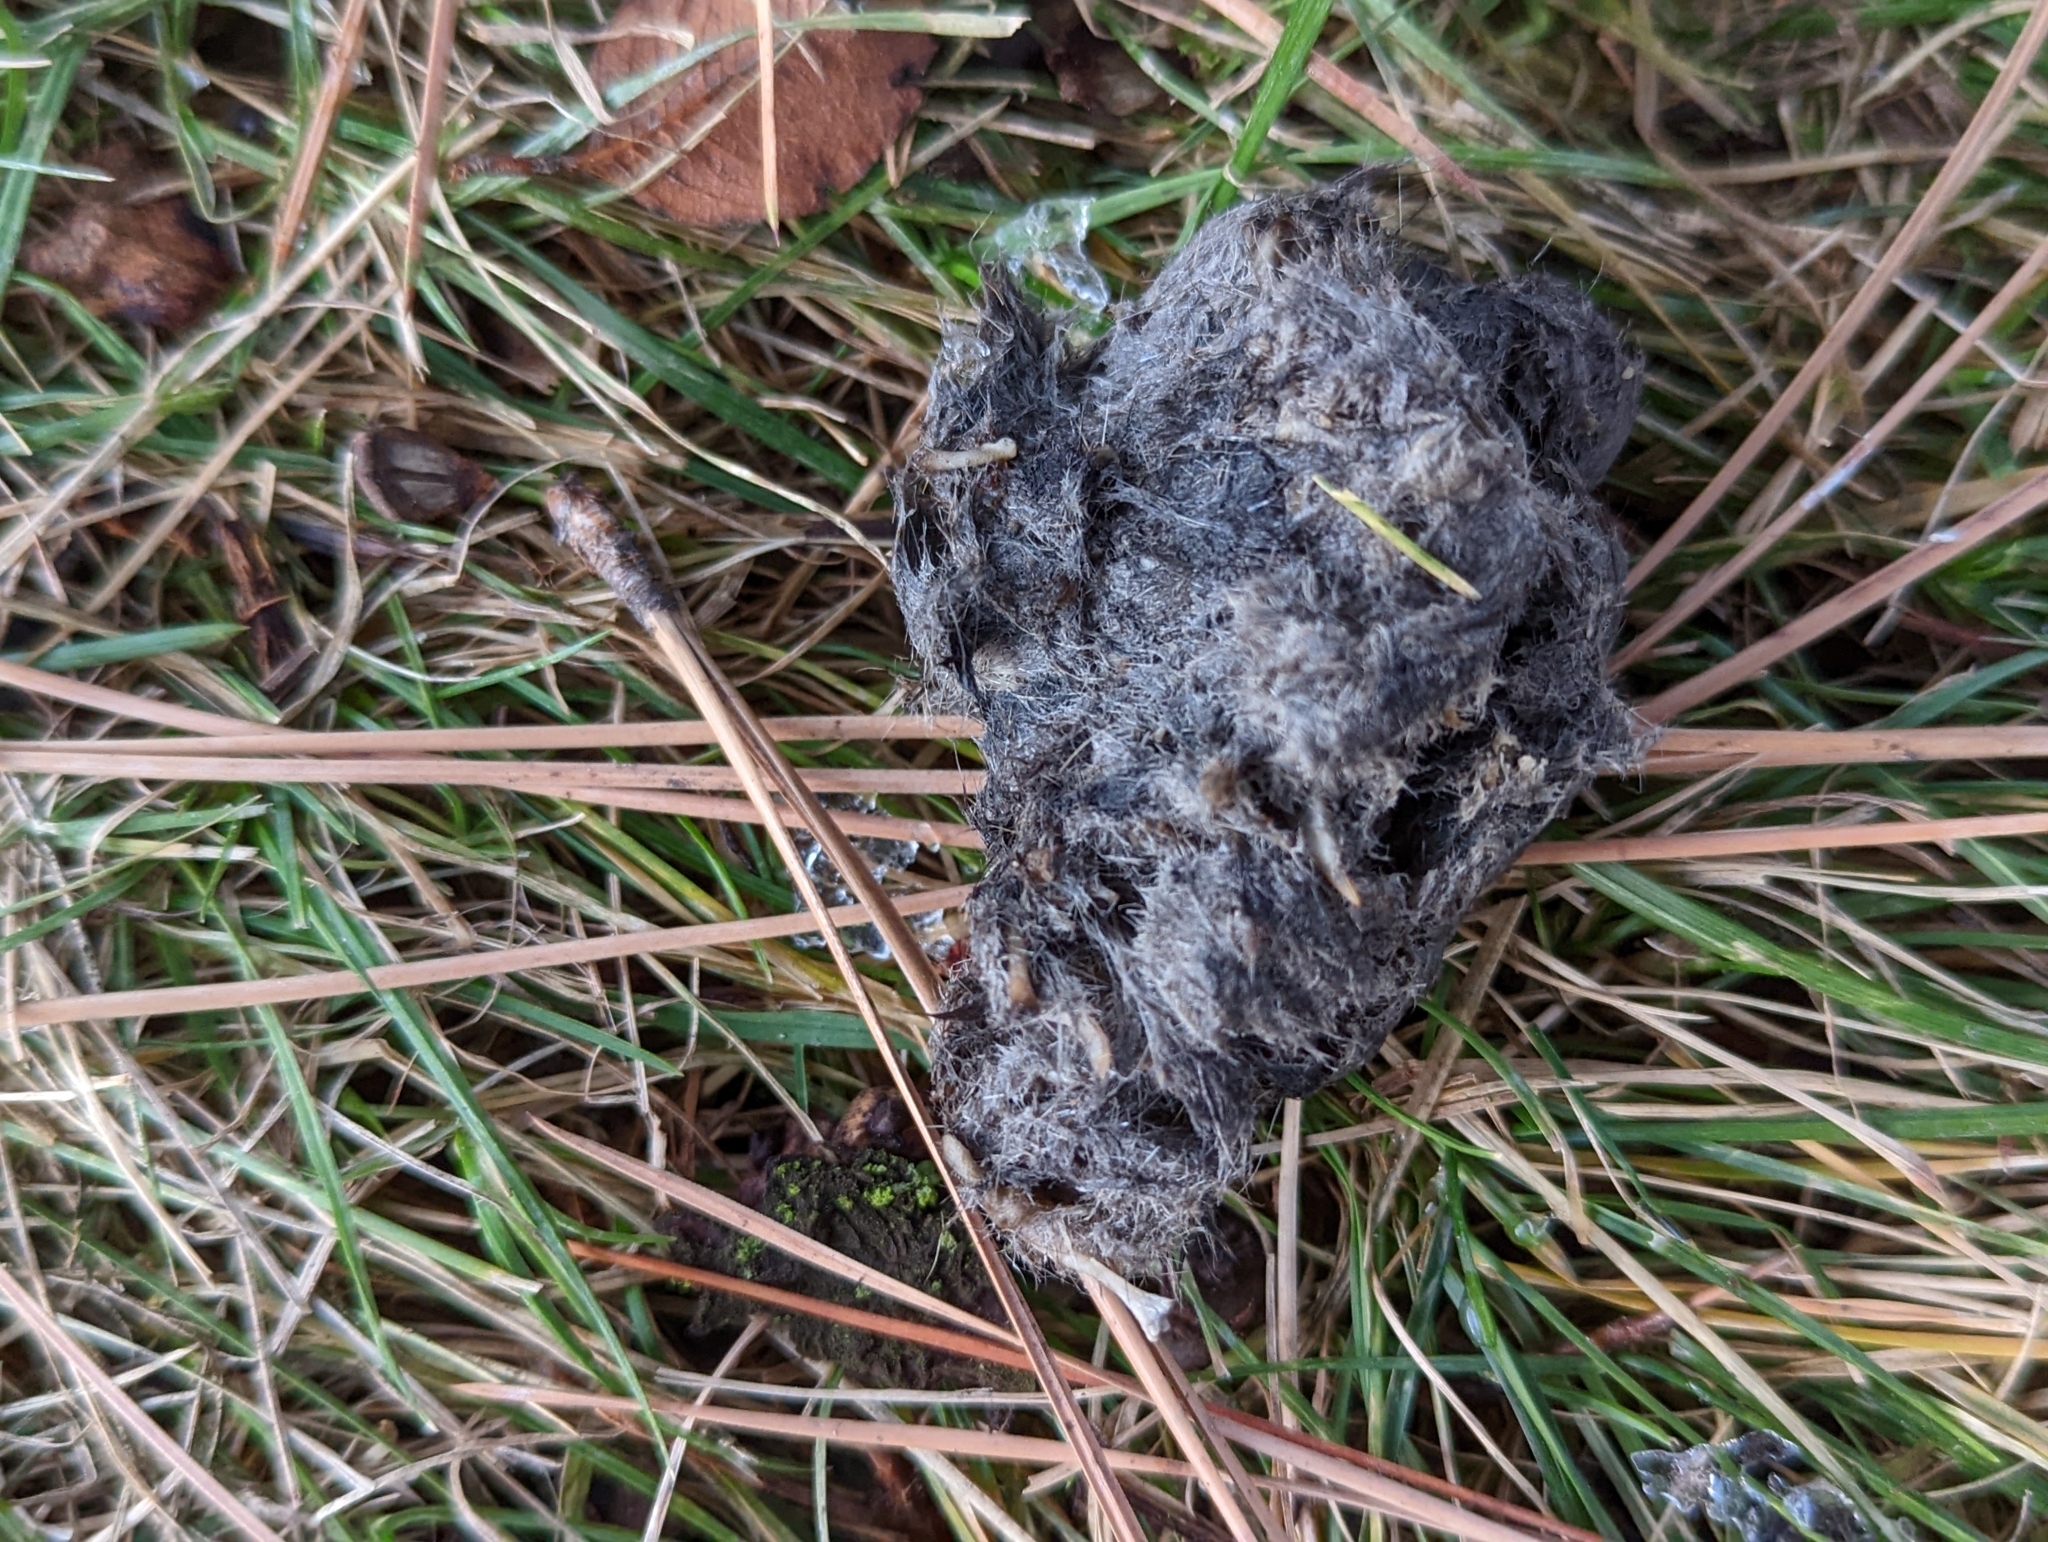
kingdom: Animalia
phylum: Chordata
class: Aves
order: Strigiformes
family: Strigidae
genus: Bubo
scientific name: Bubo virginianus
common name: Great horned owl
